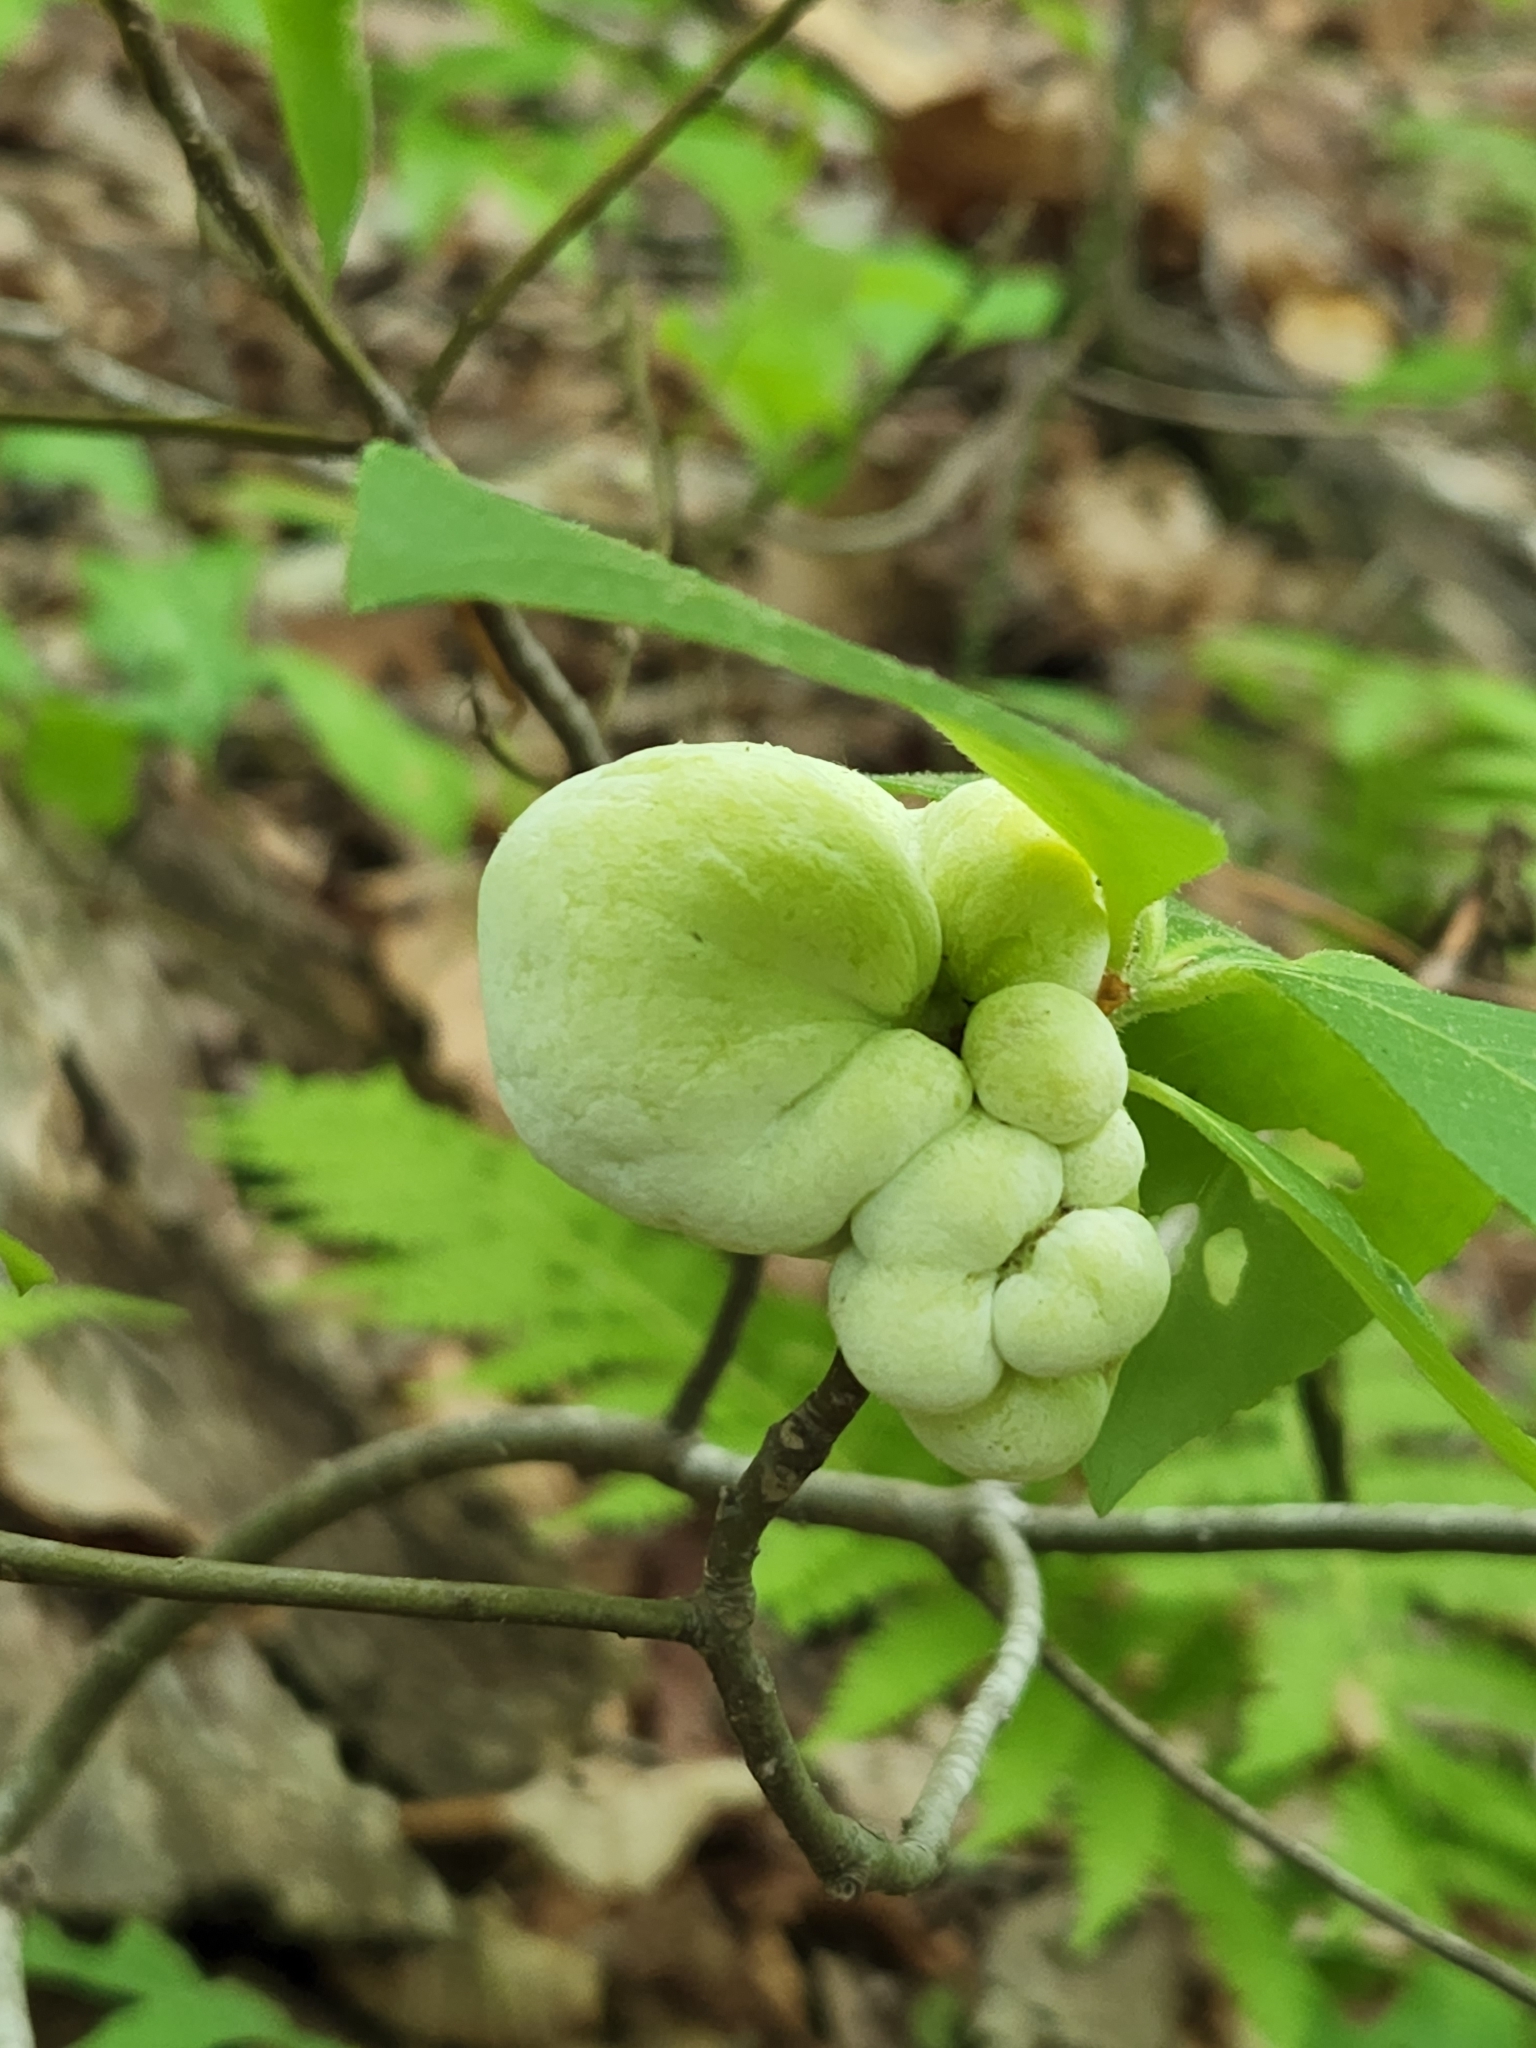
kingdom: Fungi
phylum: Basidiomycota
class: Exobasidiomycetes
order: Exobasidiales
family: Exobasidiaceae
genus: Exobasidium
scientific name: Exobasidium symploci
